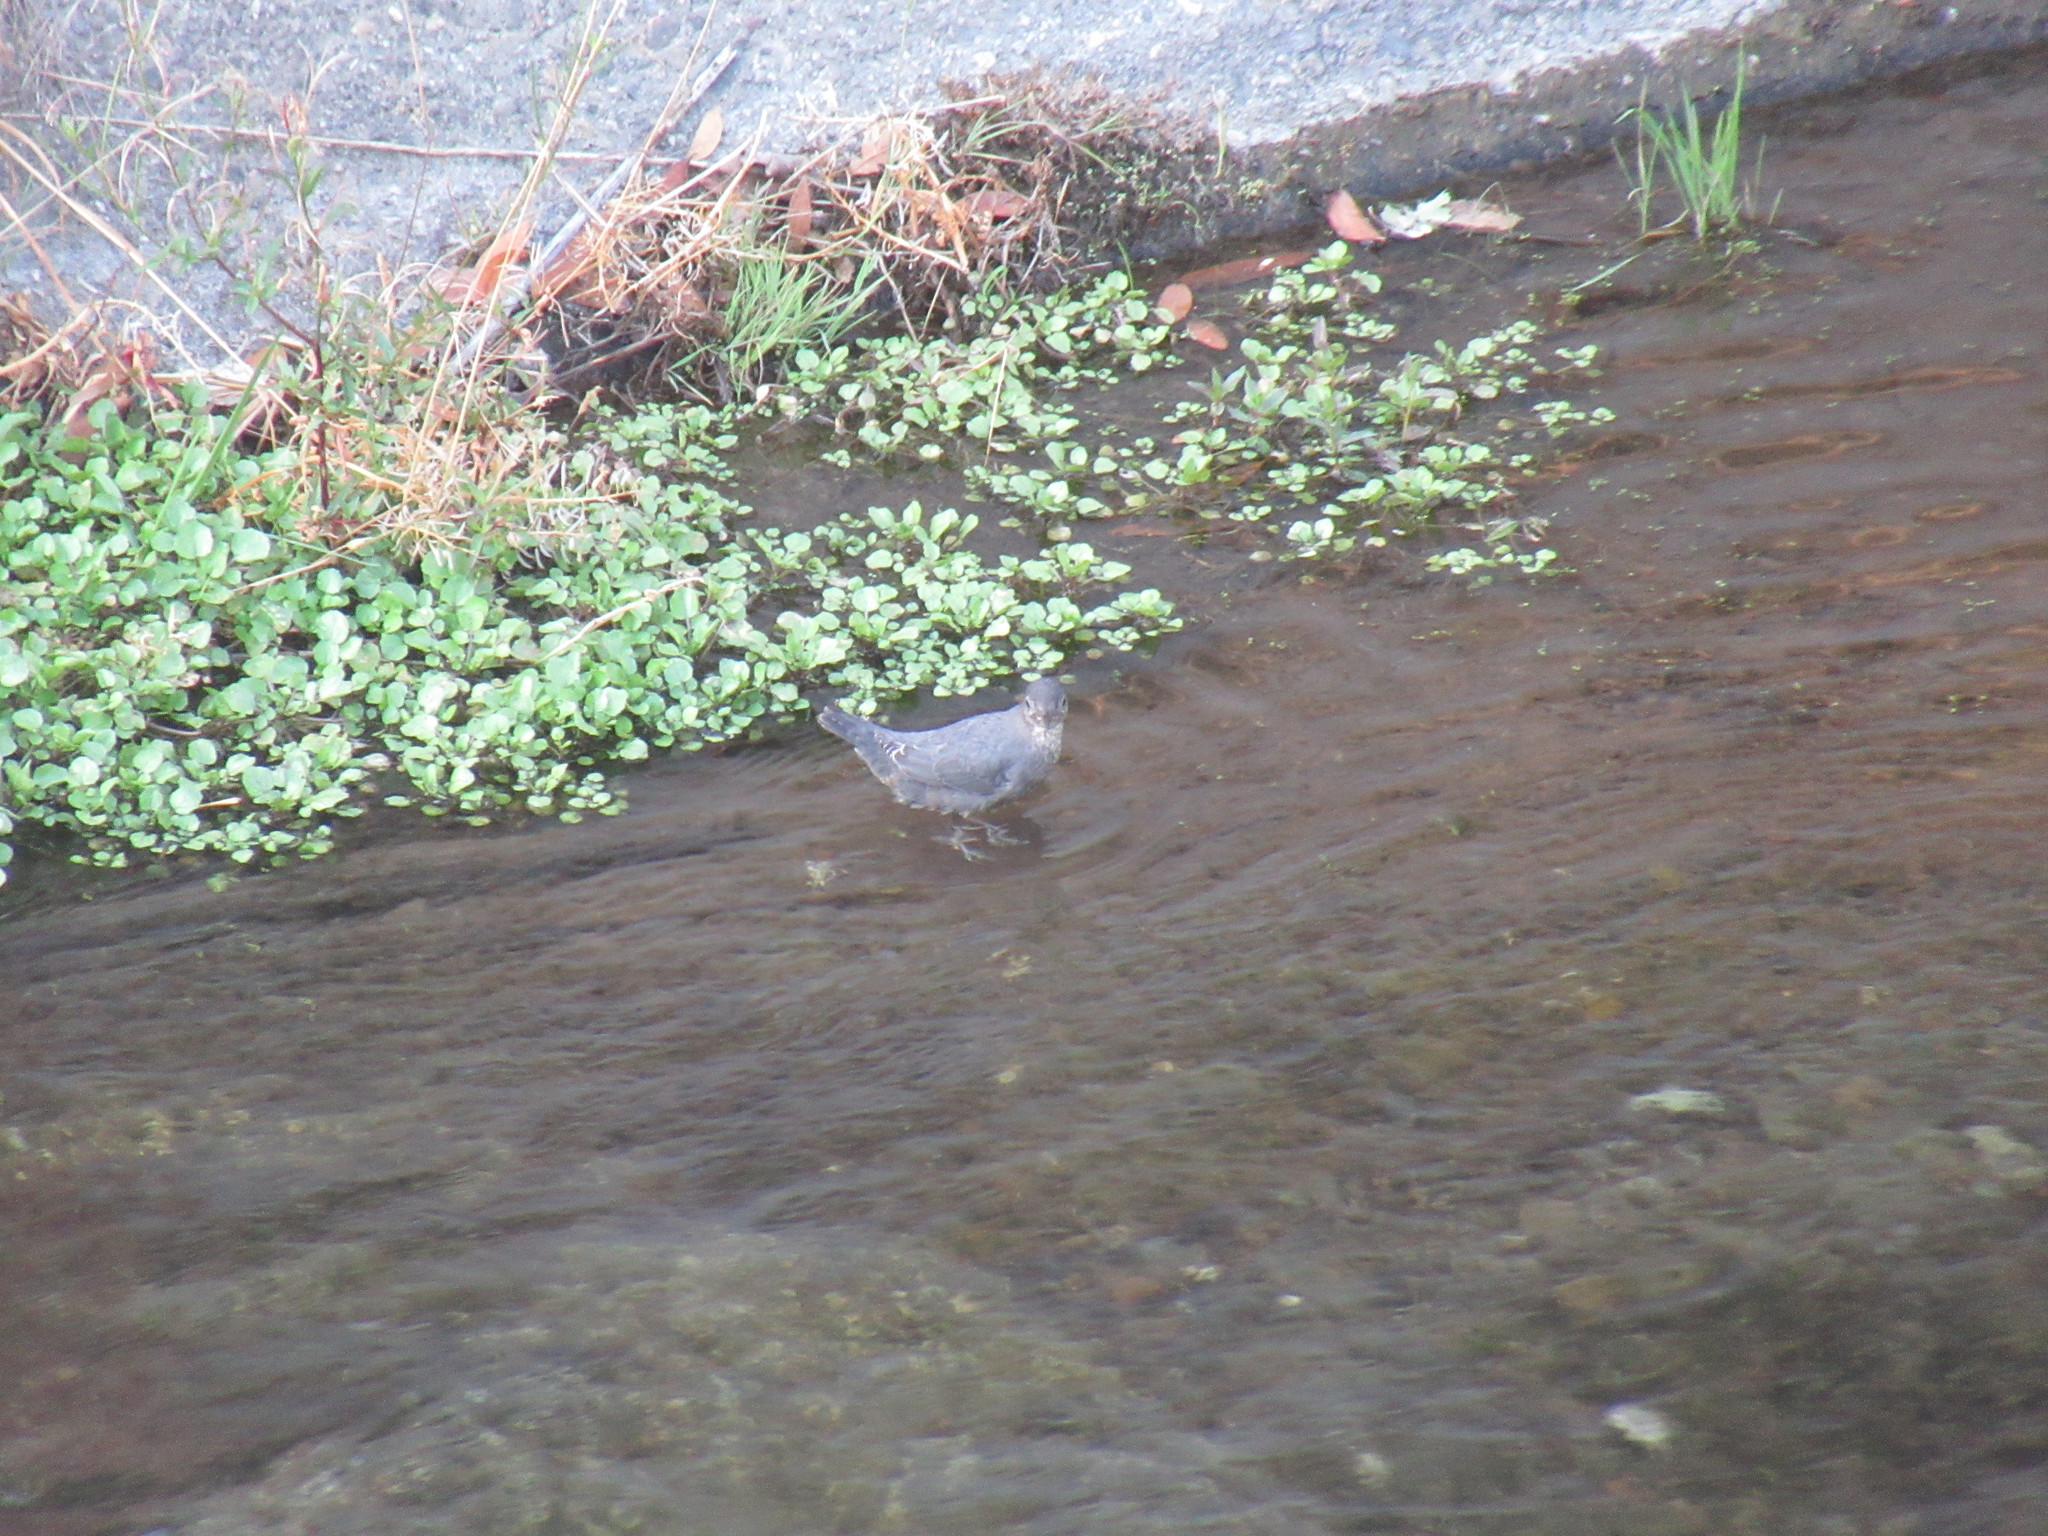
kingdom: Animalia
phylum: Chordata
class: Aves
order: Passeriformes
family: Cinclidae
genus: Cinclus
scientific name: Cinclus mexicanus
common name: American dipper
